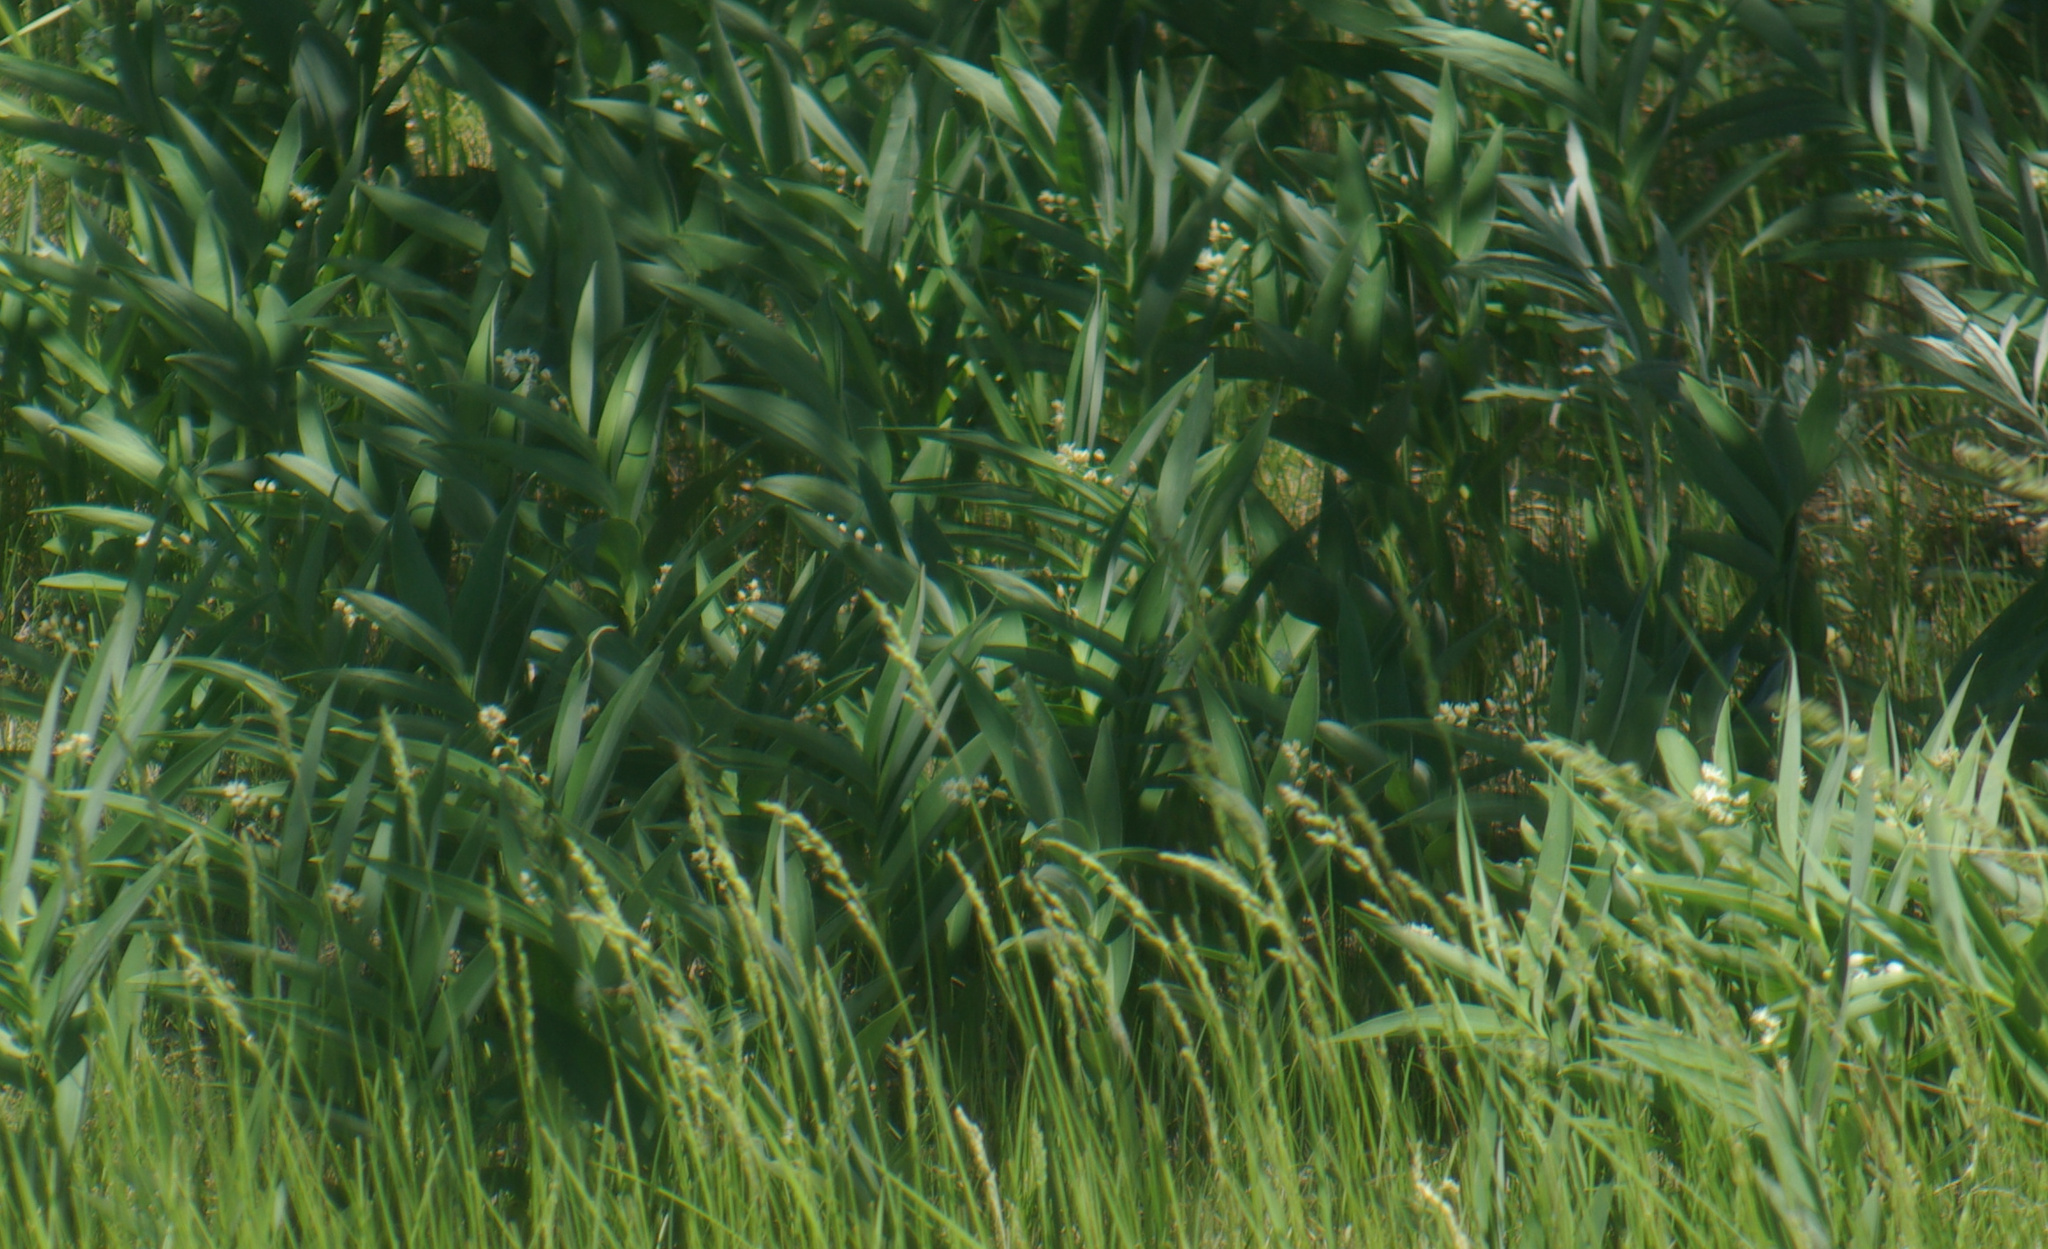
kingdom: Plantae
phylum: Tracheophyta
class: Liliopsida
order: Asparagales
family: Asparagaceae
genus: Maianthemum
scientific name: Maianthemum stellatum
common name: Little false solomon's seal
